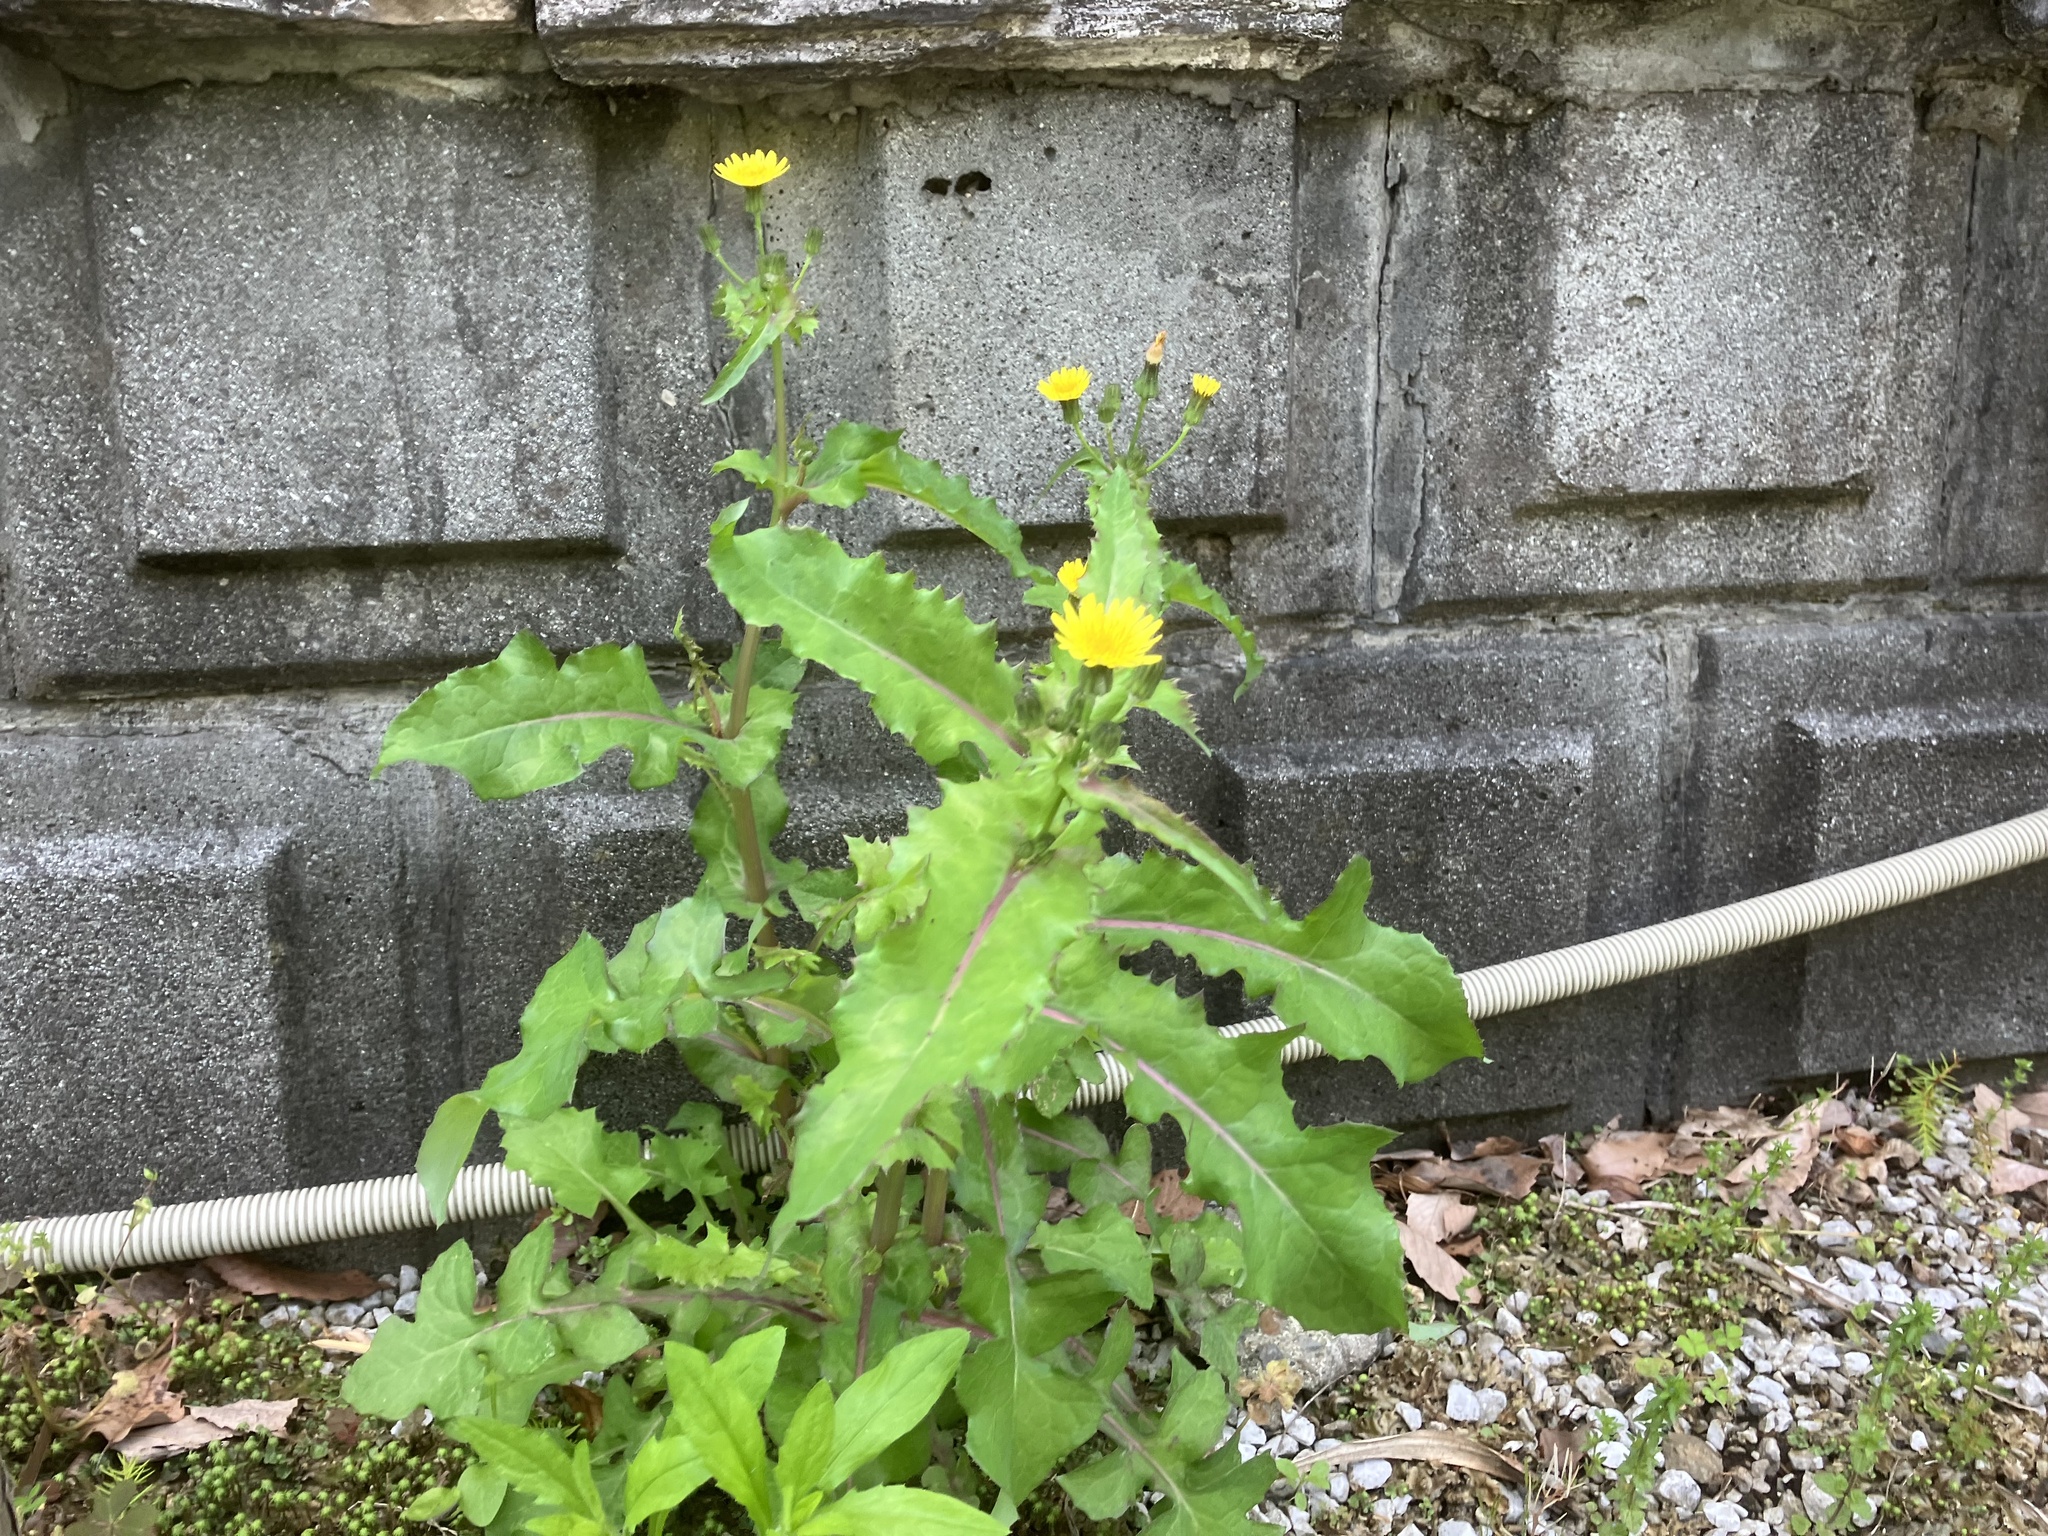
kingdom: Plantae
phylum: Tracheophyta
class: Magnoliopsida
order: Asterales
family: Asteraceae
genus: Sonchus
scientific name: Sonchus oleraceus
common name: Common sowthistle
